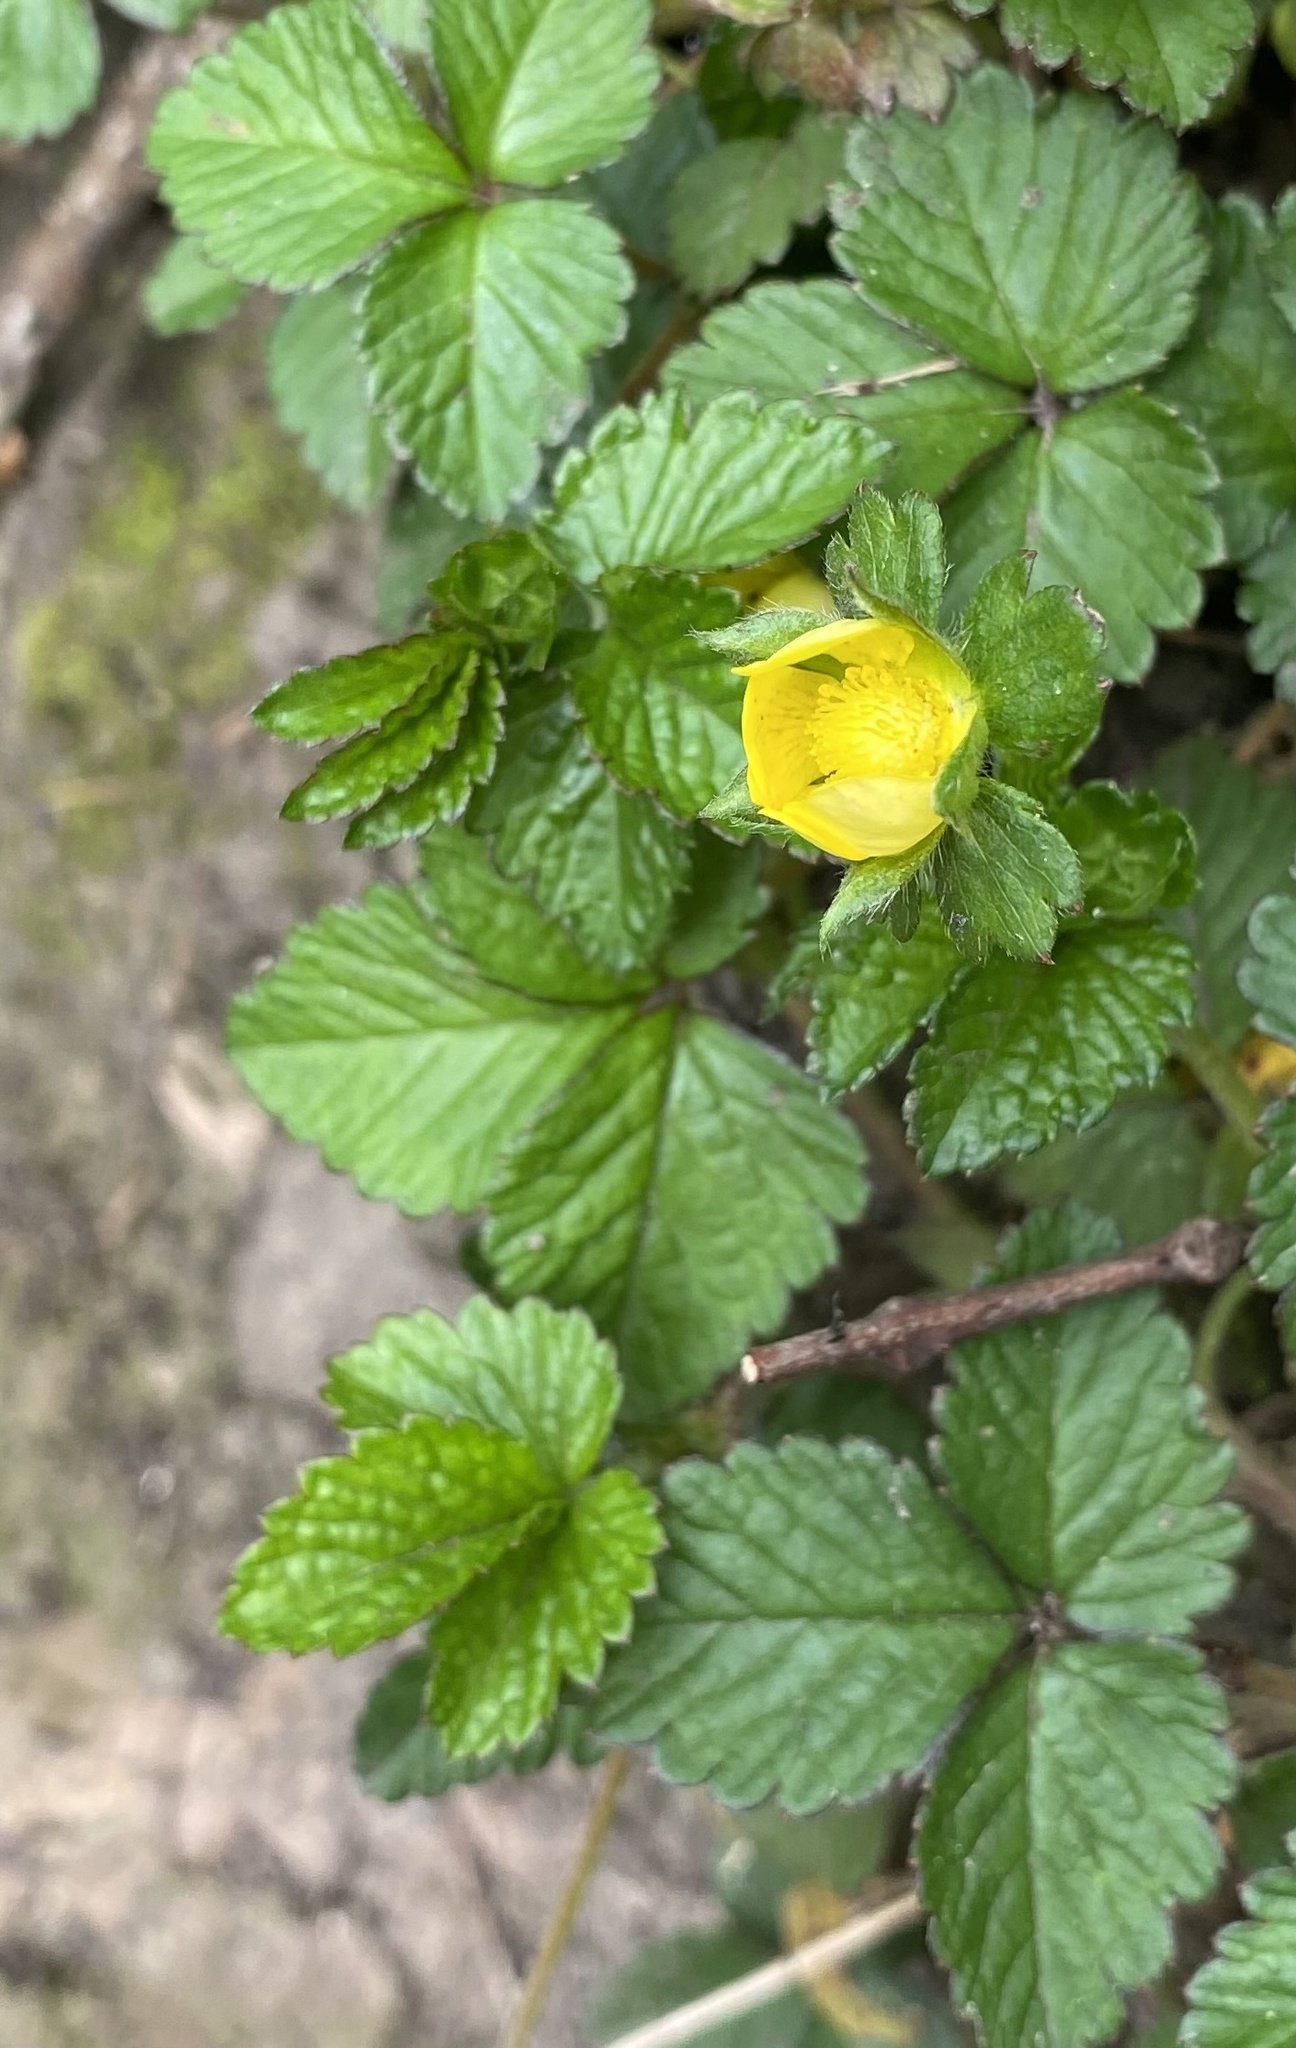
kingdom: Plantae
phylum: Tracheophyta
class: Magnoliopsida
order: Rosales
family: Rosaceae
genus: Potentilla
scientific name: Potentilla indica
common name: Yellow-flowered strawberry
